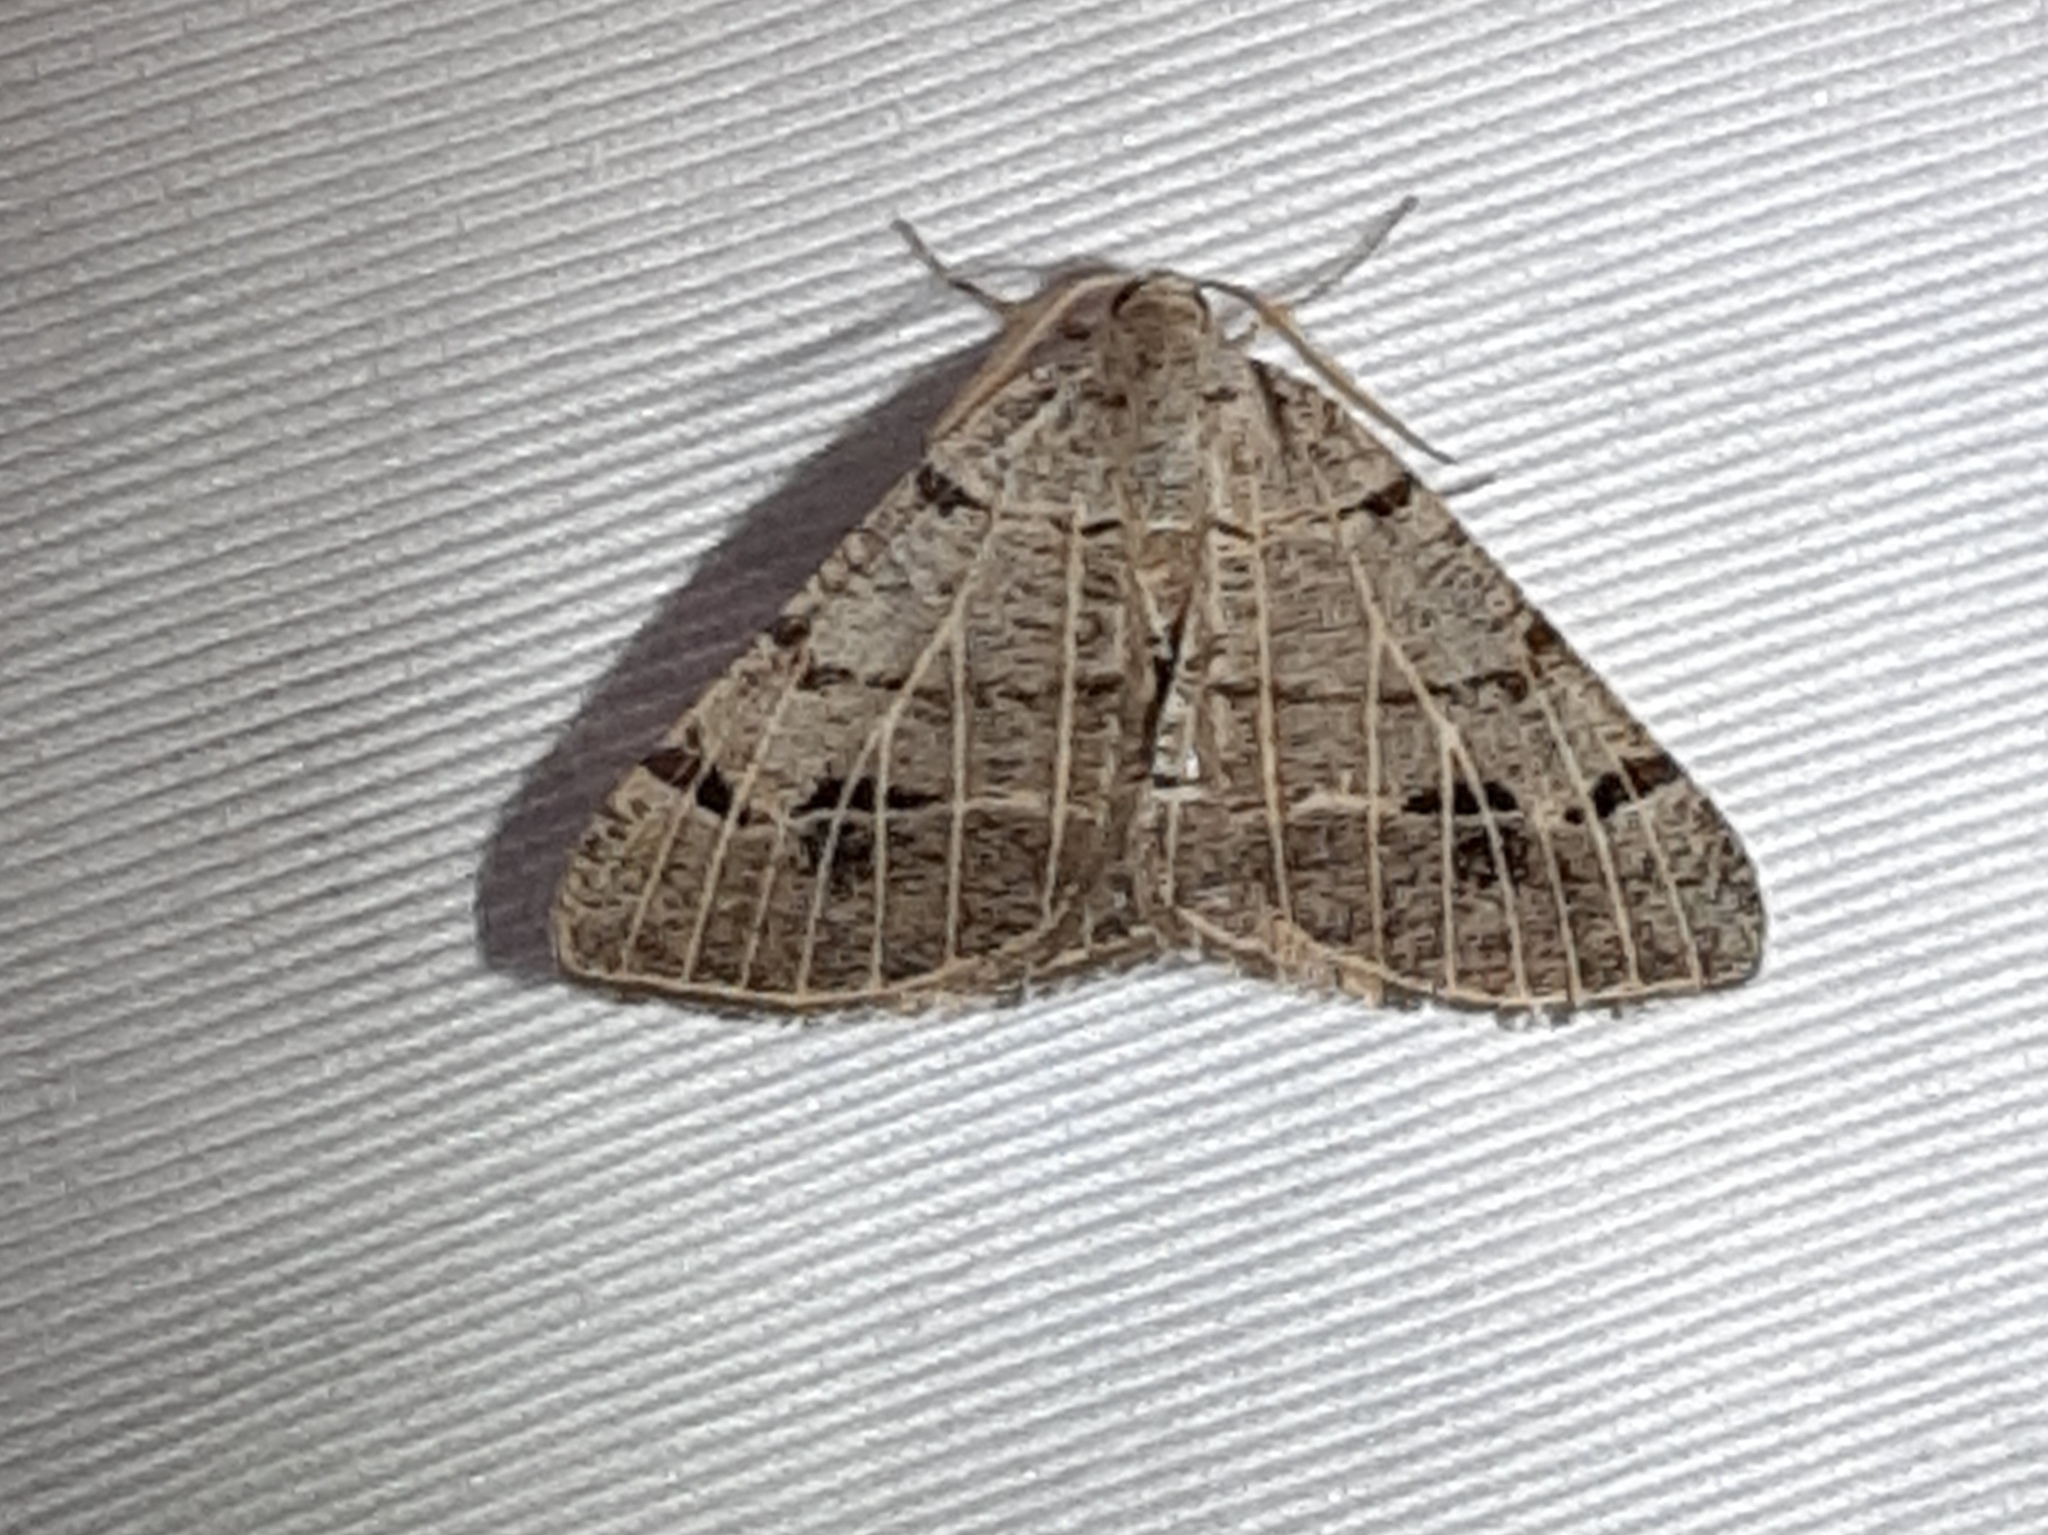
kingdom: Animalia
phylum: Arthropoda
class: Insecta
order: Lepidoptera
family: Geometridae
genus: Isturgia
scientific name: Isturgia dislocaria
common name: Pale-viened enconista
